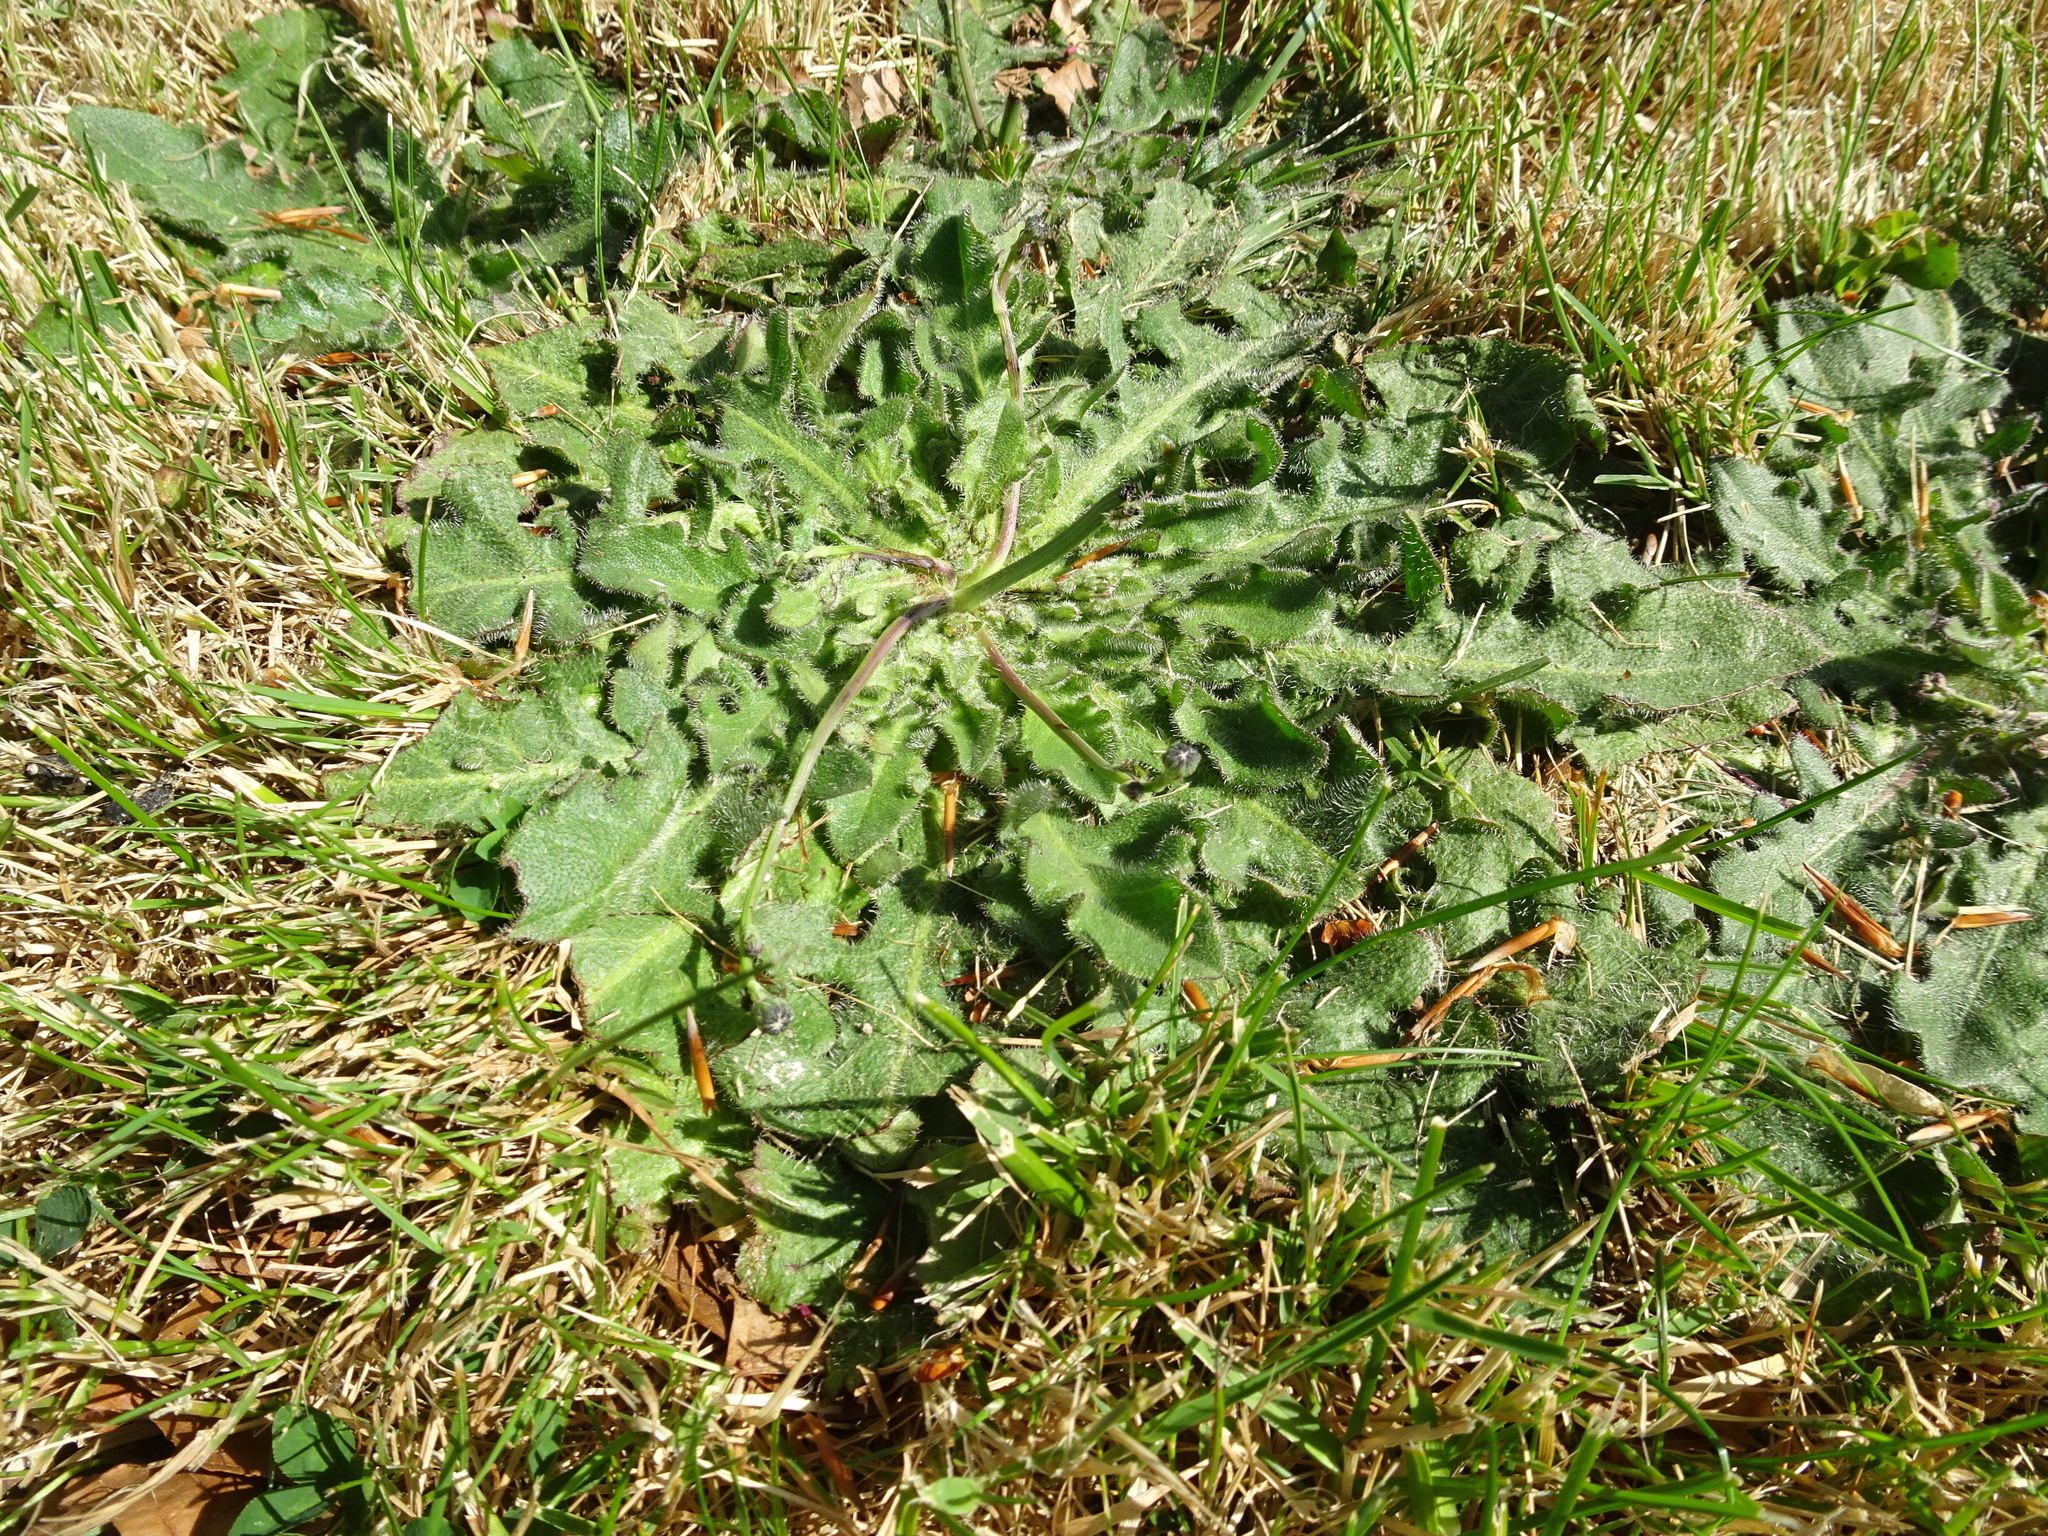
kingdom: Plantae
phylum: Tracheophyta
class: Magnoliopsida
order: Asterales
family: Asteraceae
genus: Hypochaeris
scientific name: Hypochaeris radicata
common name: Flatweed
